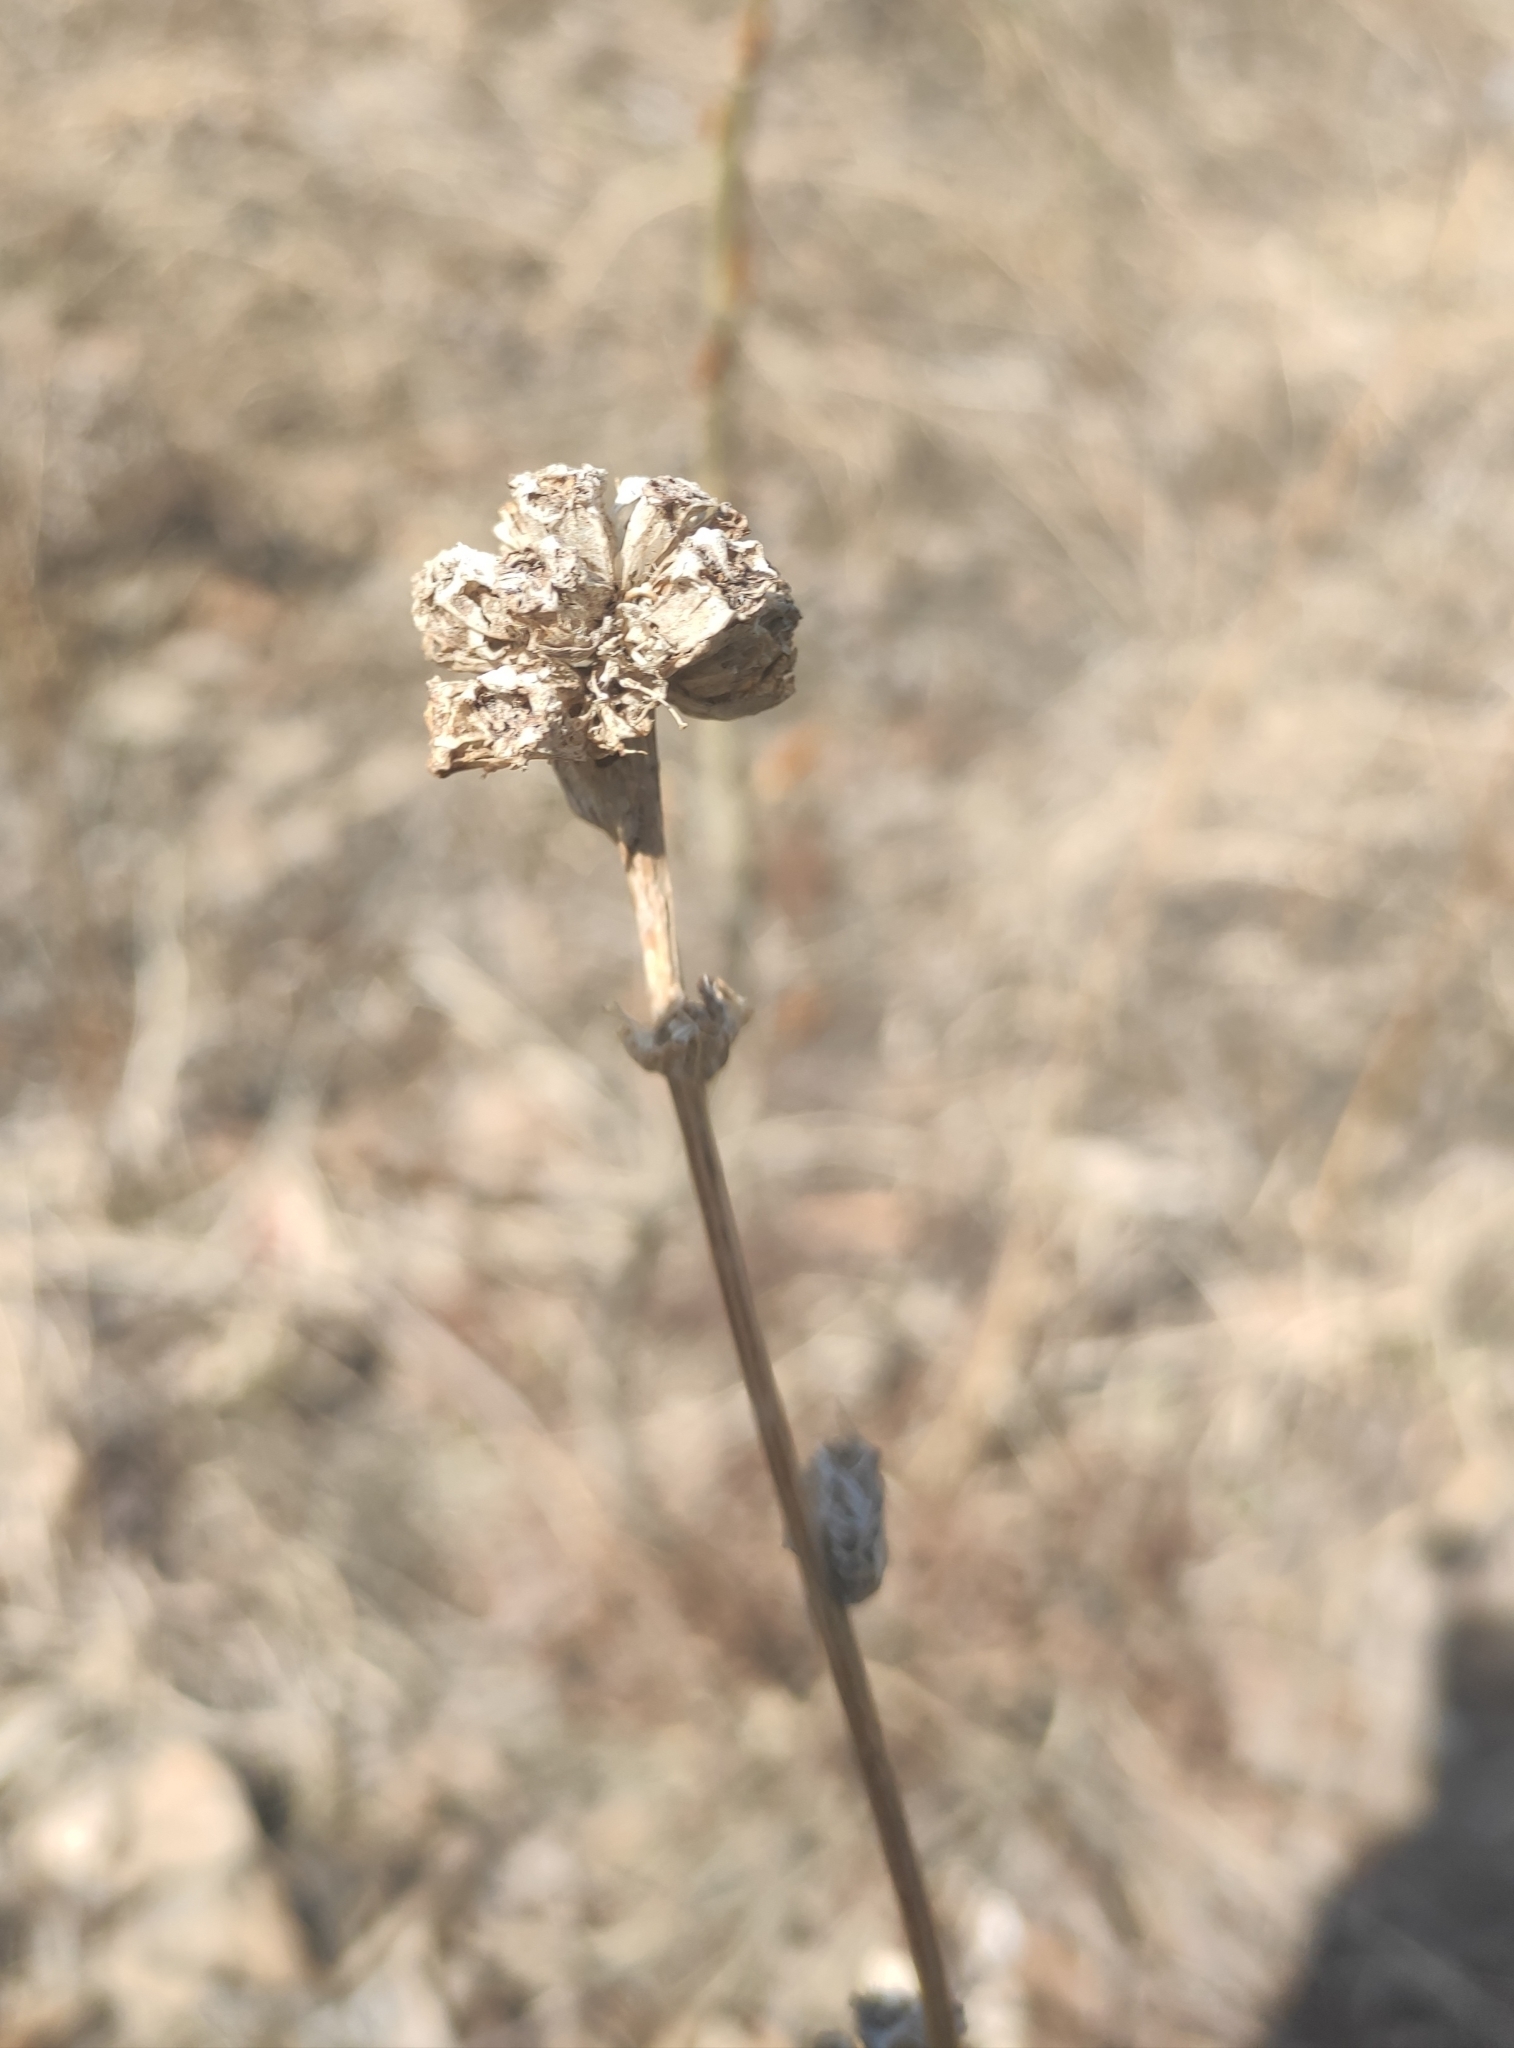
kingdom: Plantae
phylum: Tracheophyta
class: Magnoliopsida
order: Asterales
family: Campanulaceae
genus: Campanula
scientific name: Campanula glomerata
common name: Clustered bellflower
